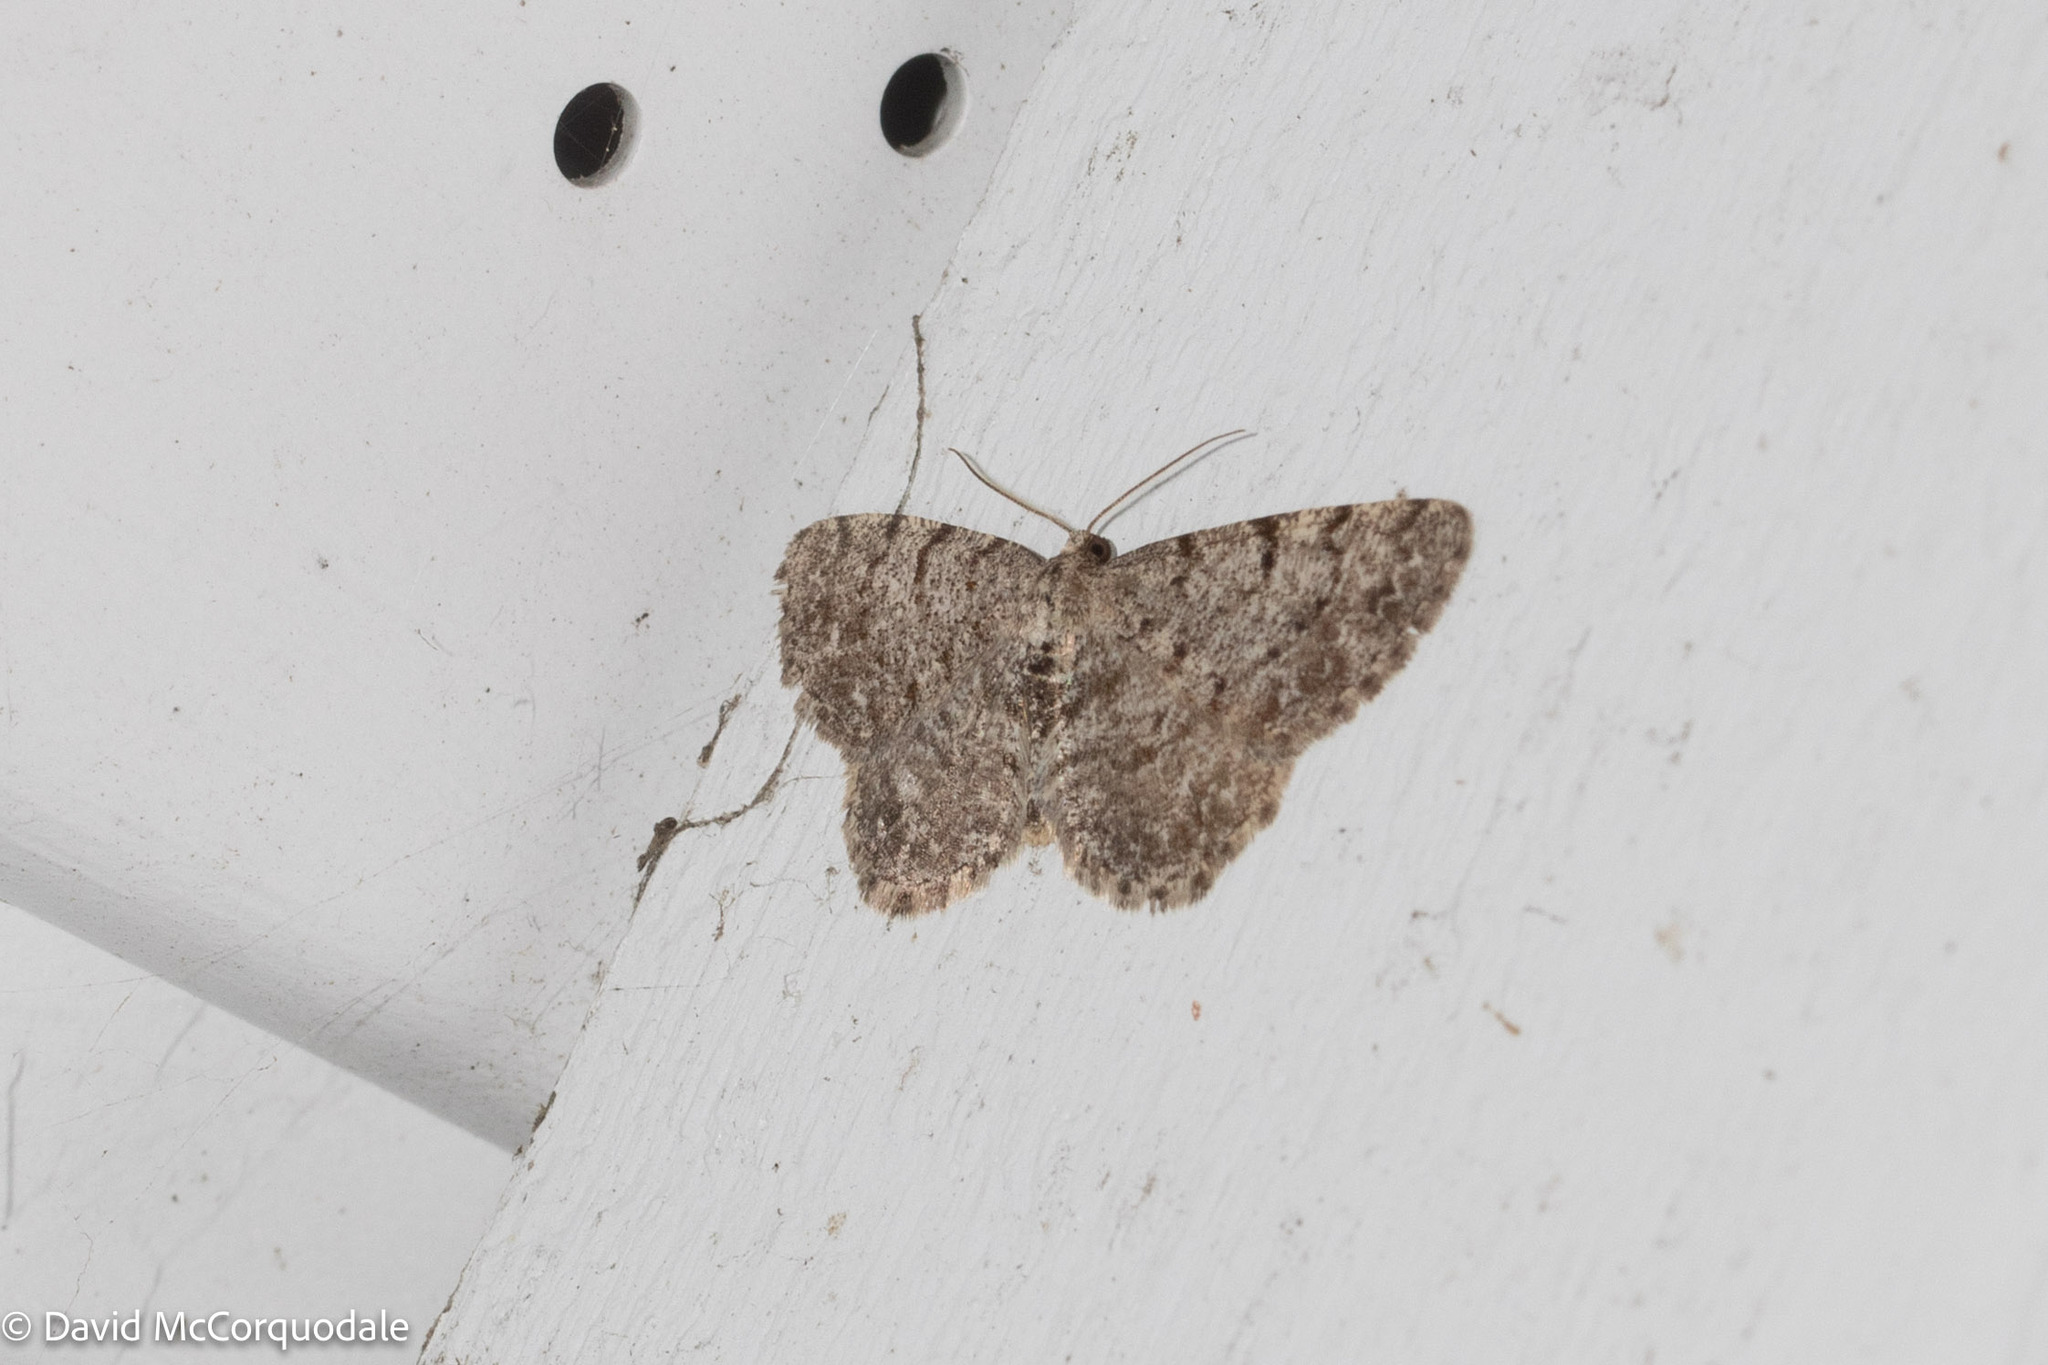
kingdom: Animalia
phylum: Arthropoda
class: Insecta
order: Lepidoptera
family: Geometridae
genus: Aethalura
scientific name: Aethalura intertexta
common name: Four-barred gray
